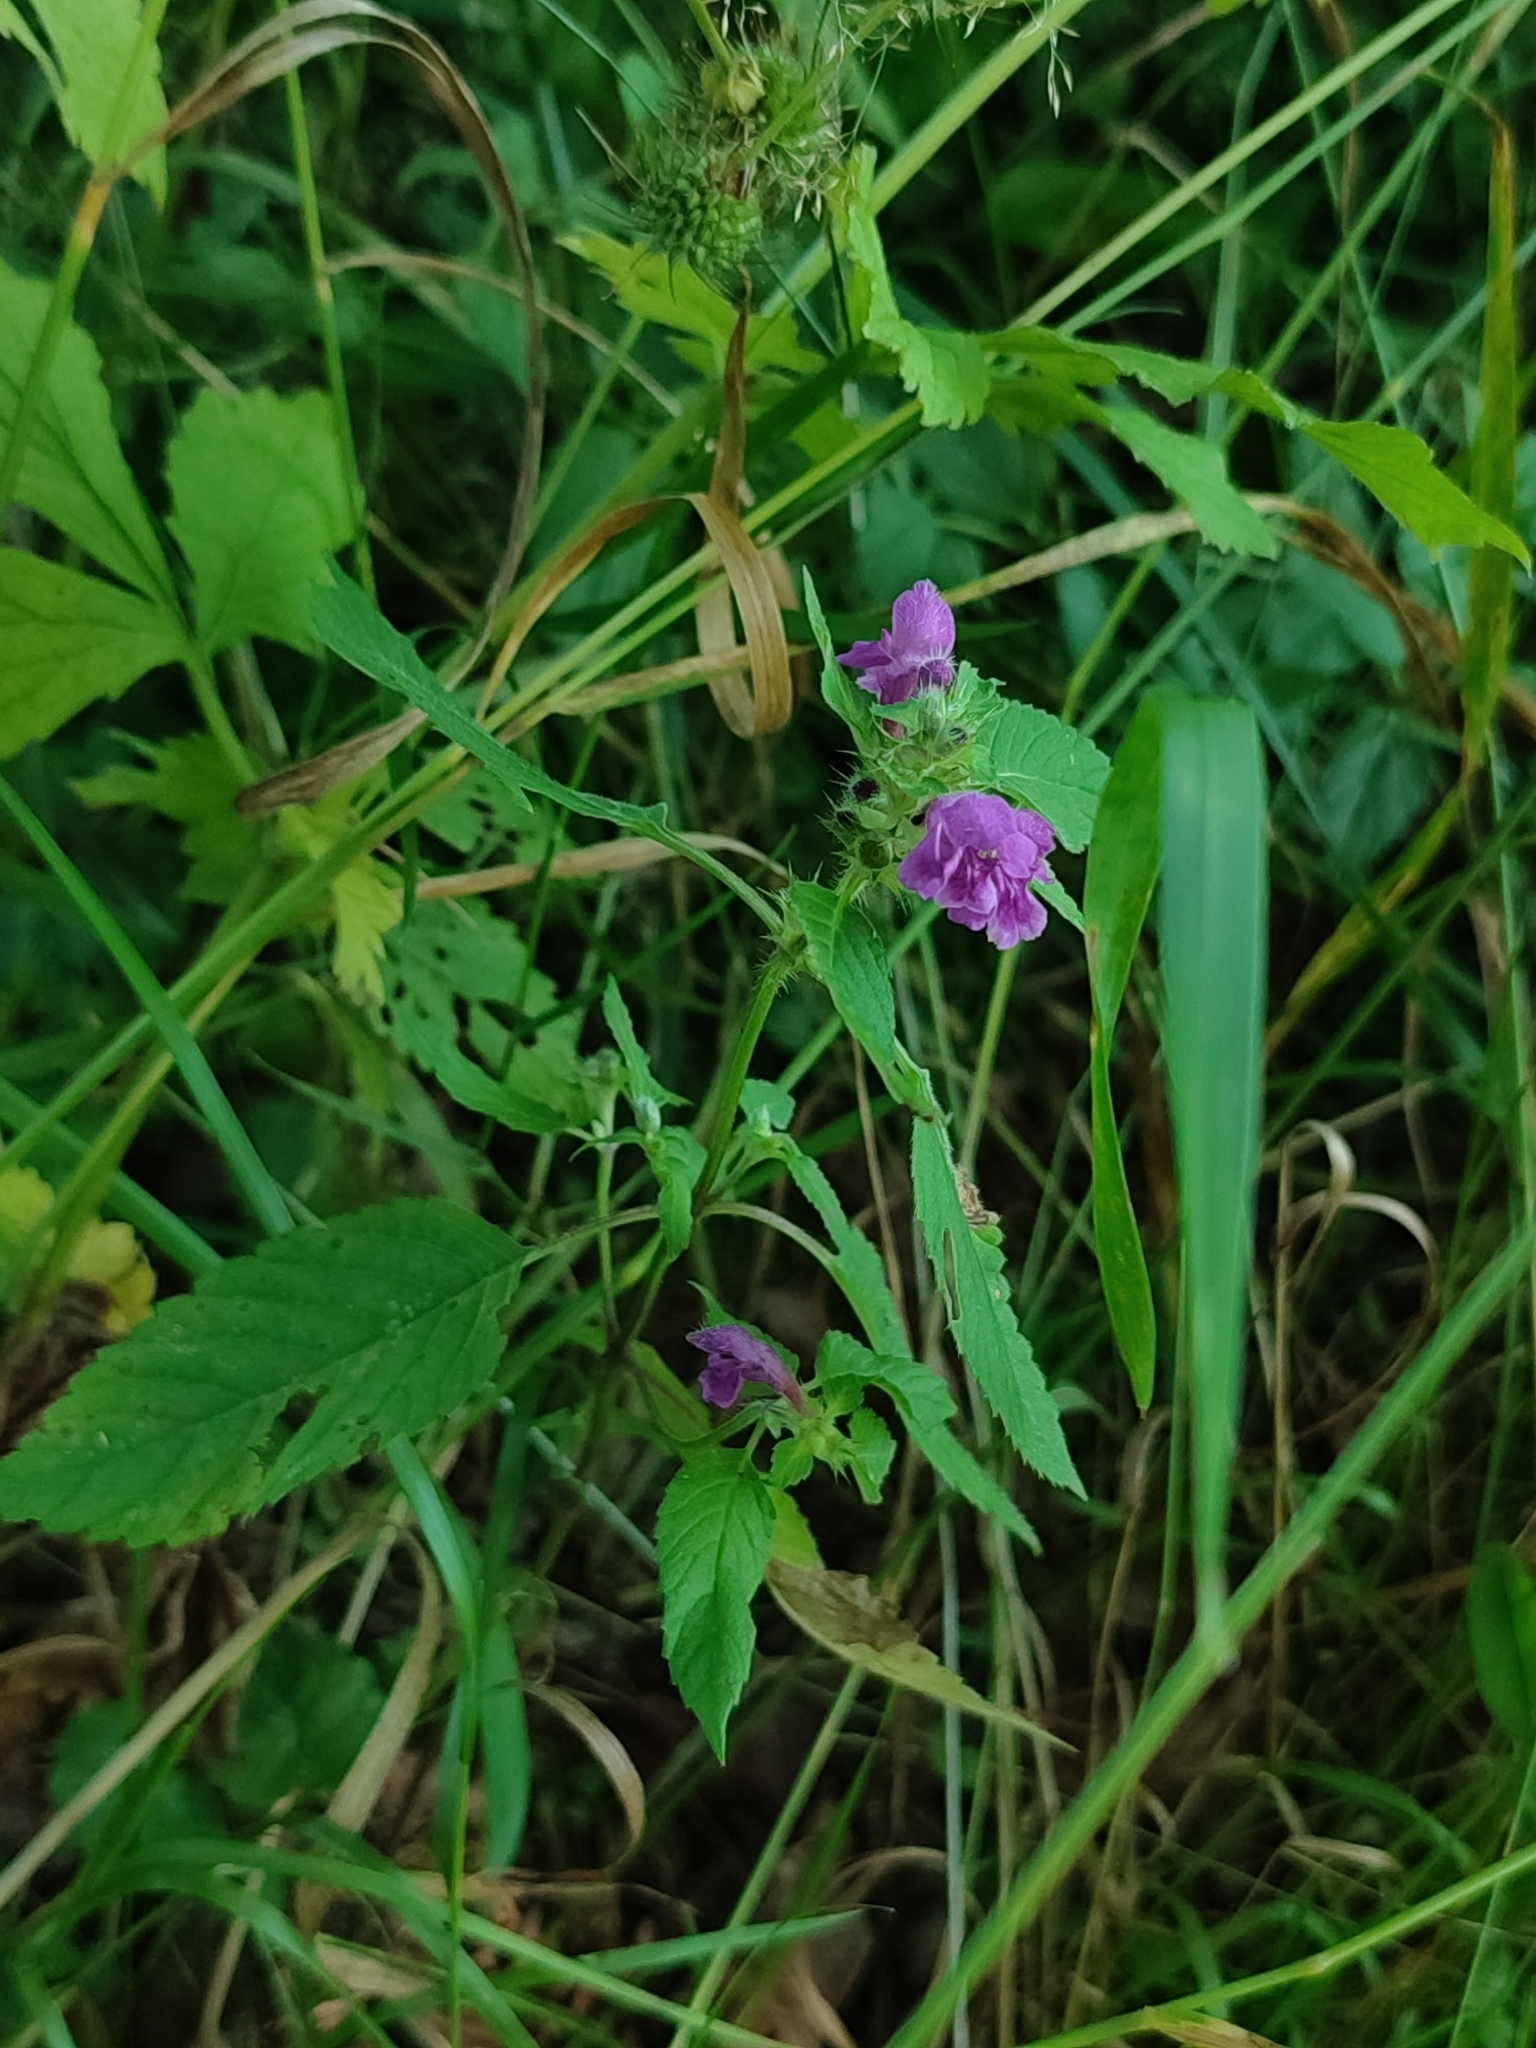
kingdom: Plantae
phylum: Tracheophyta
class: Magnoliopsida
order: Lamiales
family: Lamiaceae
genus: Galeopsis
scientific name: Galeopsis tetrahit
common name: Common hemp-nettle
